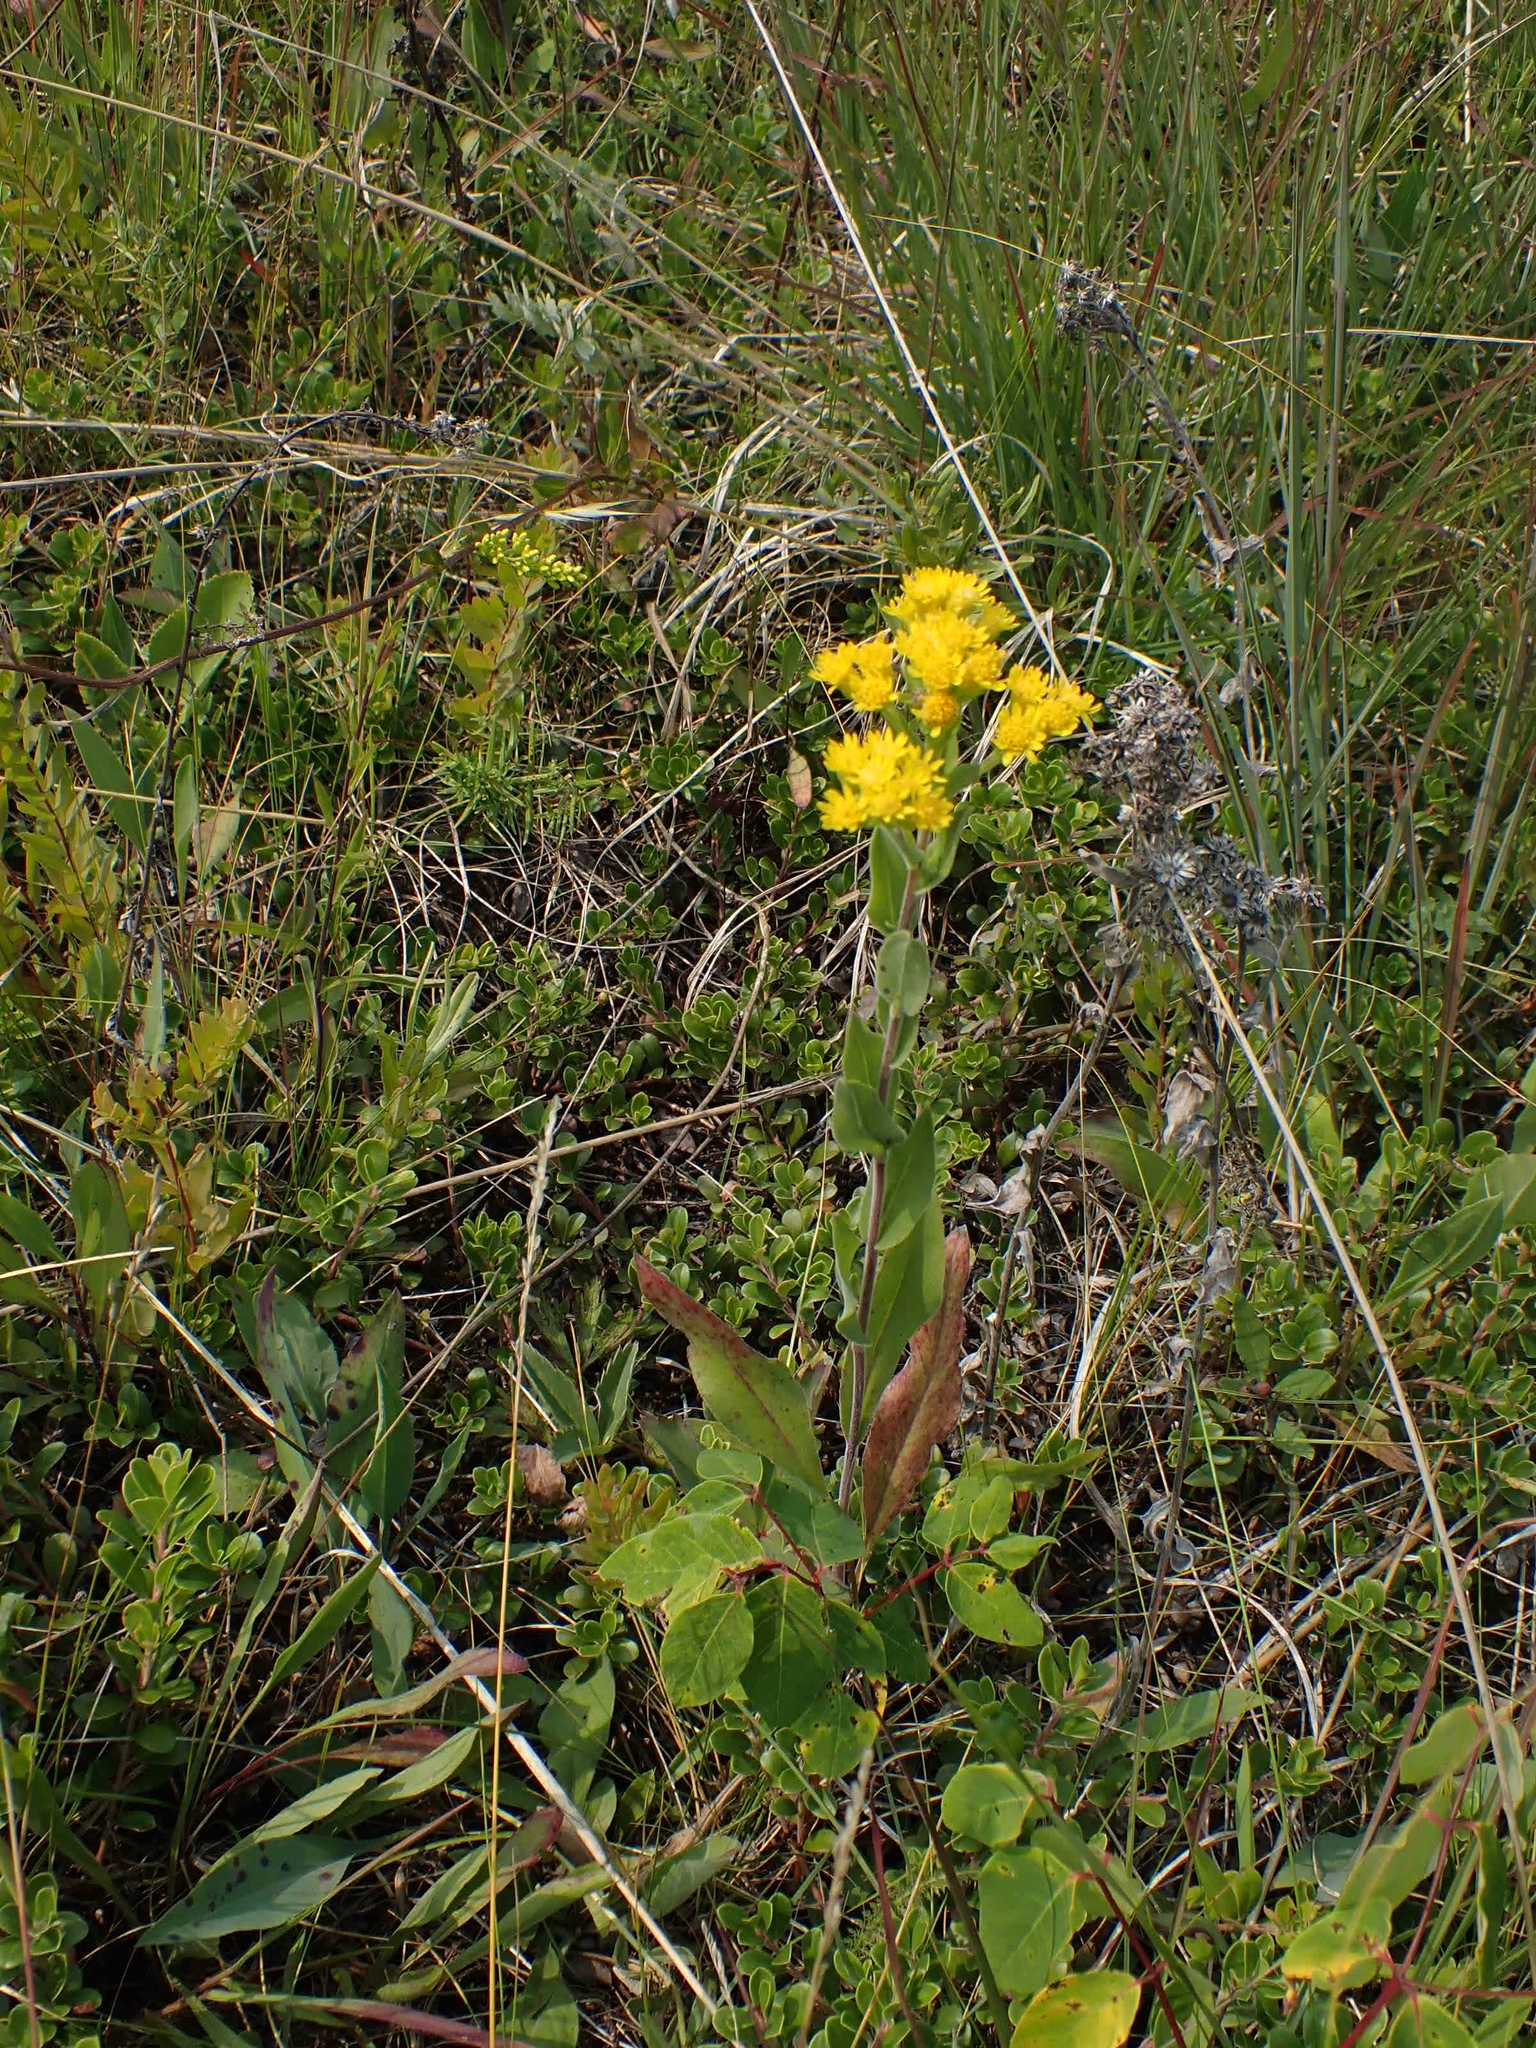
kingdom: Plantae
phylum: Tracheophyta
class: Magnoliopsida
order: Asterales
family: Asteraceae
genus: Solidago
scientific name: Solidago rigida
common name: Rigid goldenrod
